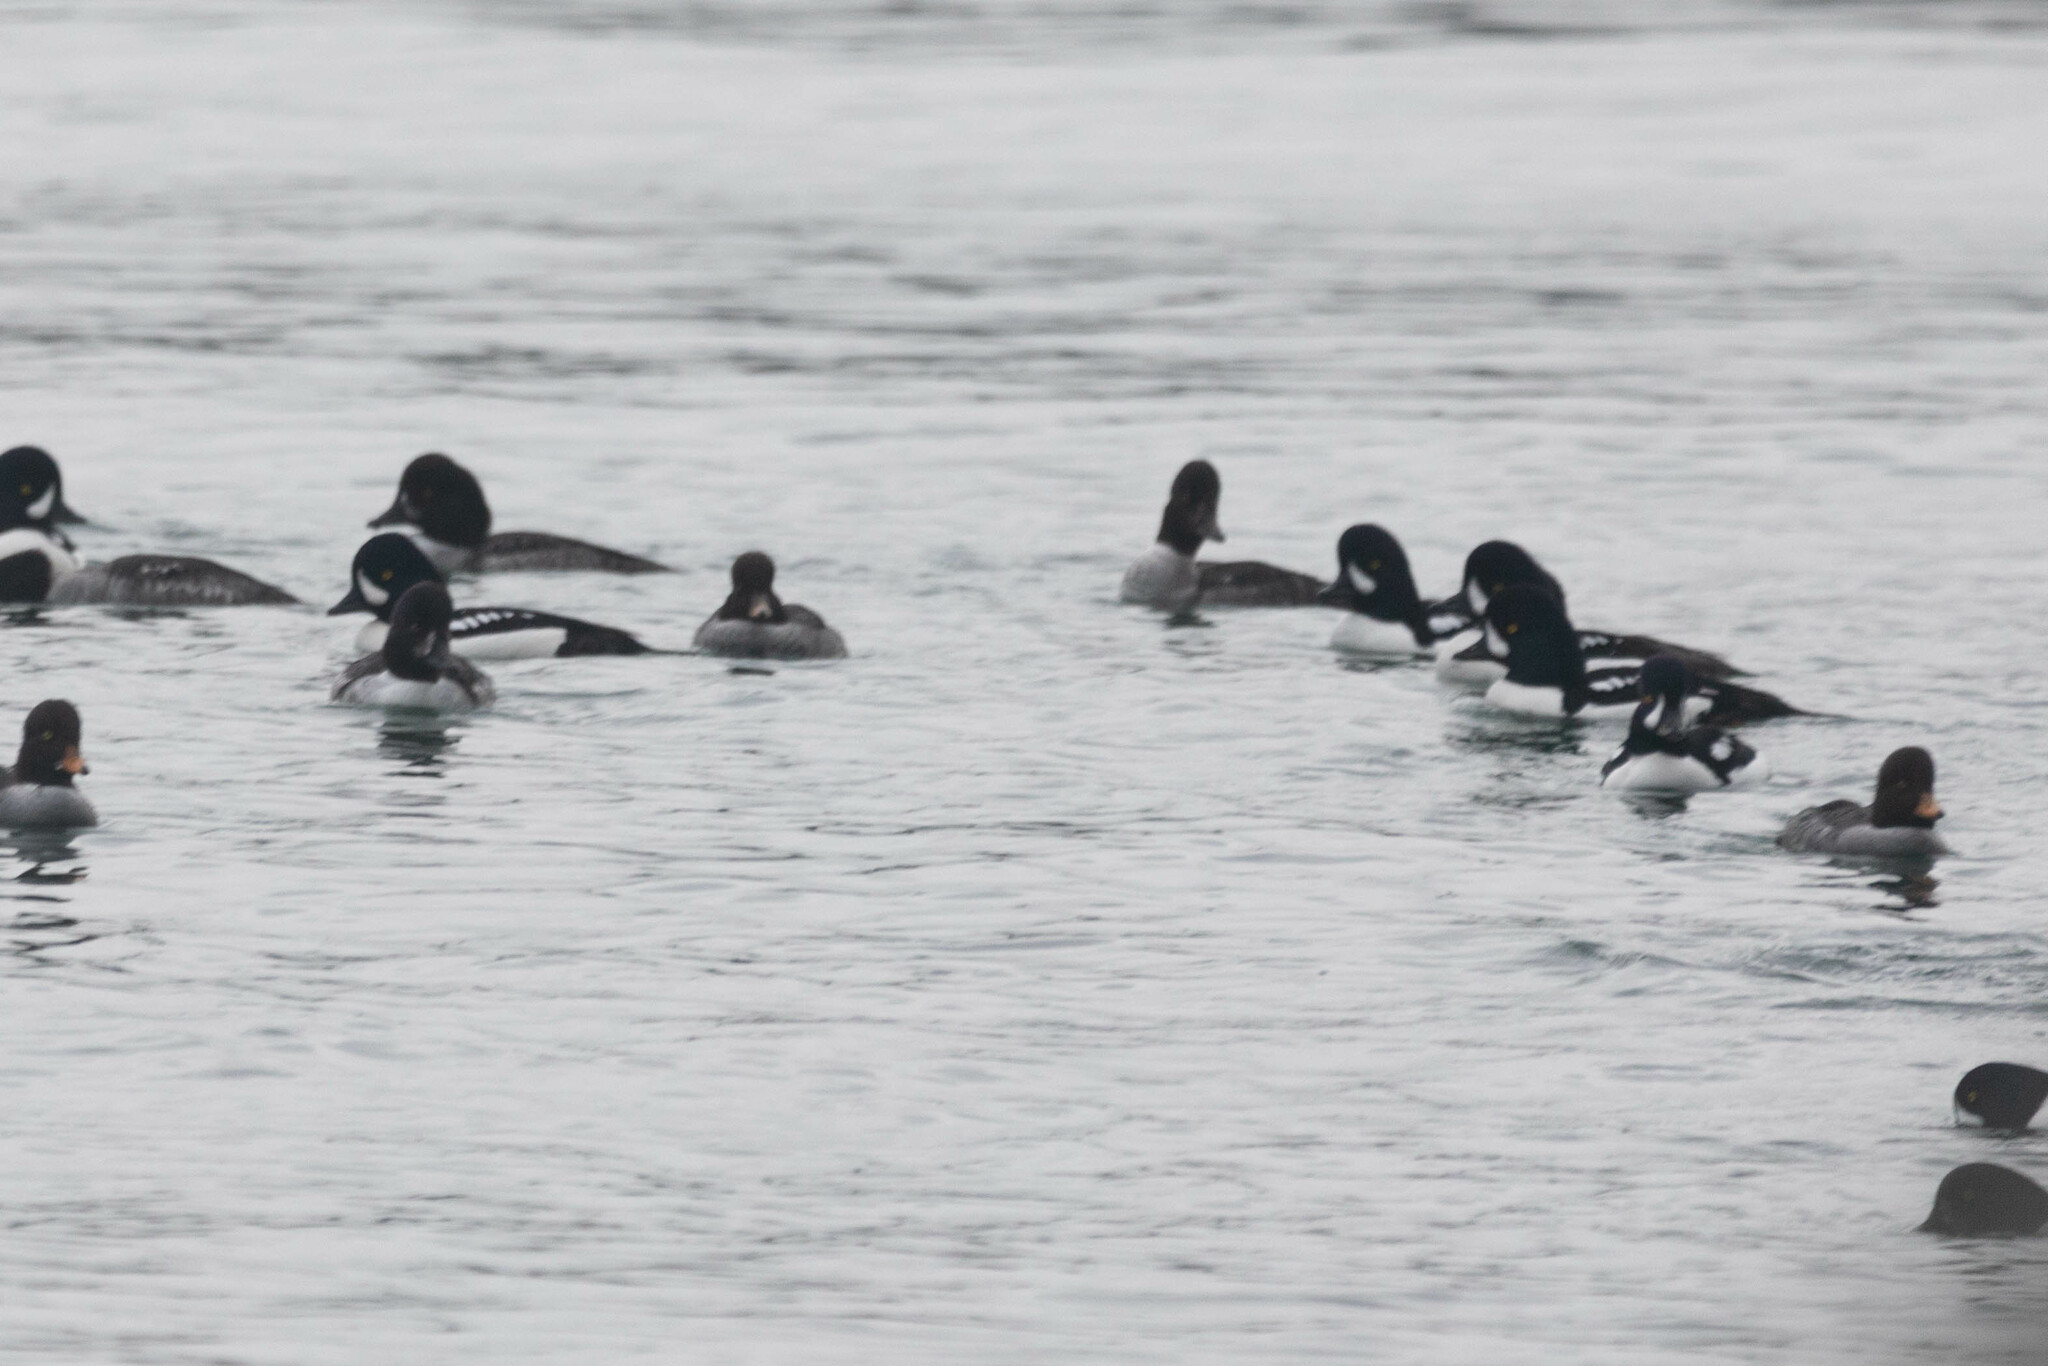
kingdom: Animalia
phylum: Chordata
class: Aves
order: Anseriformes
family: Anatidae
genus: Bucephala
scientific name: Bucephala islandica
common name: Barrow's goldeneye
